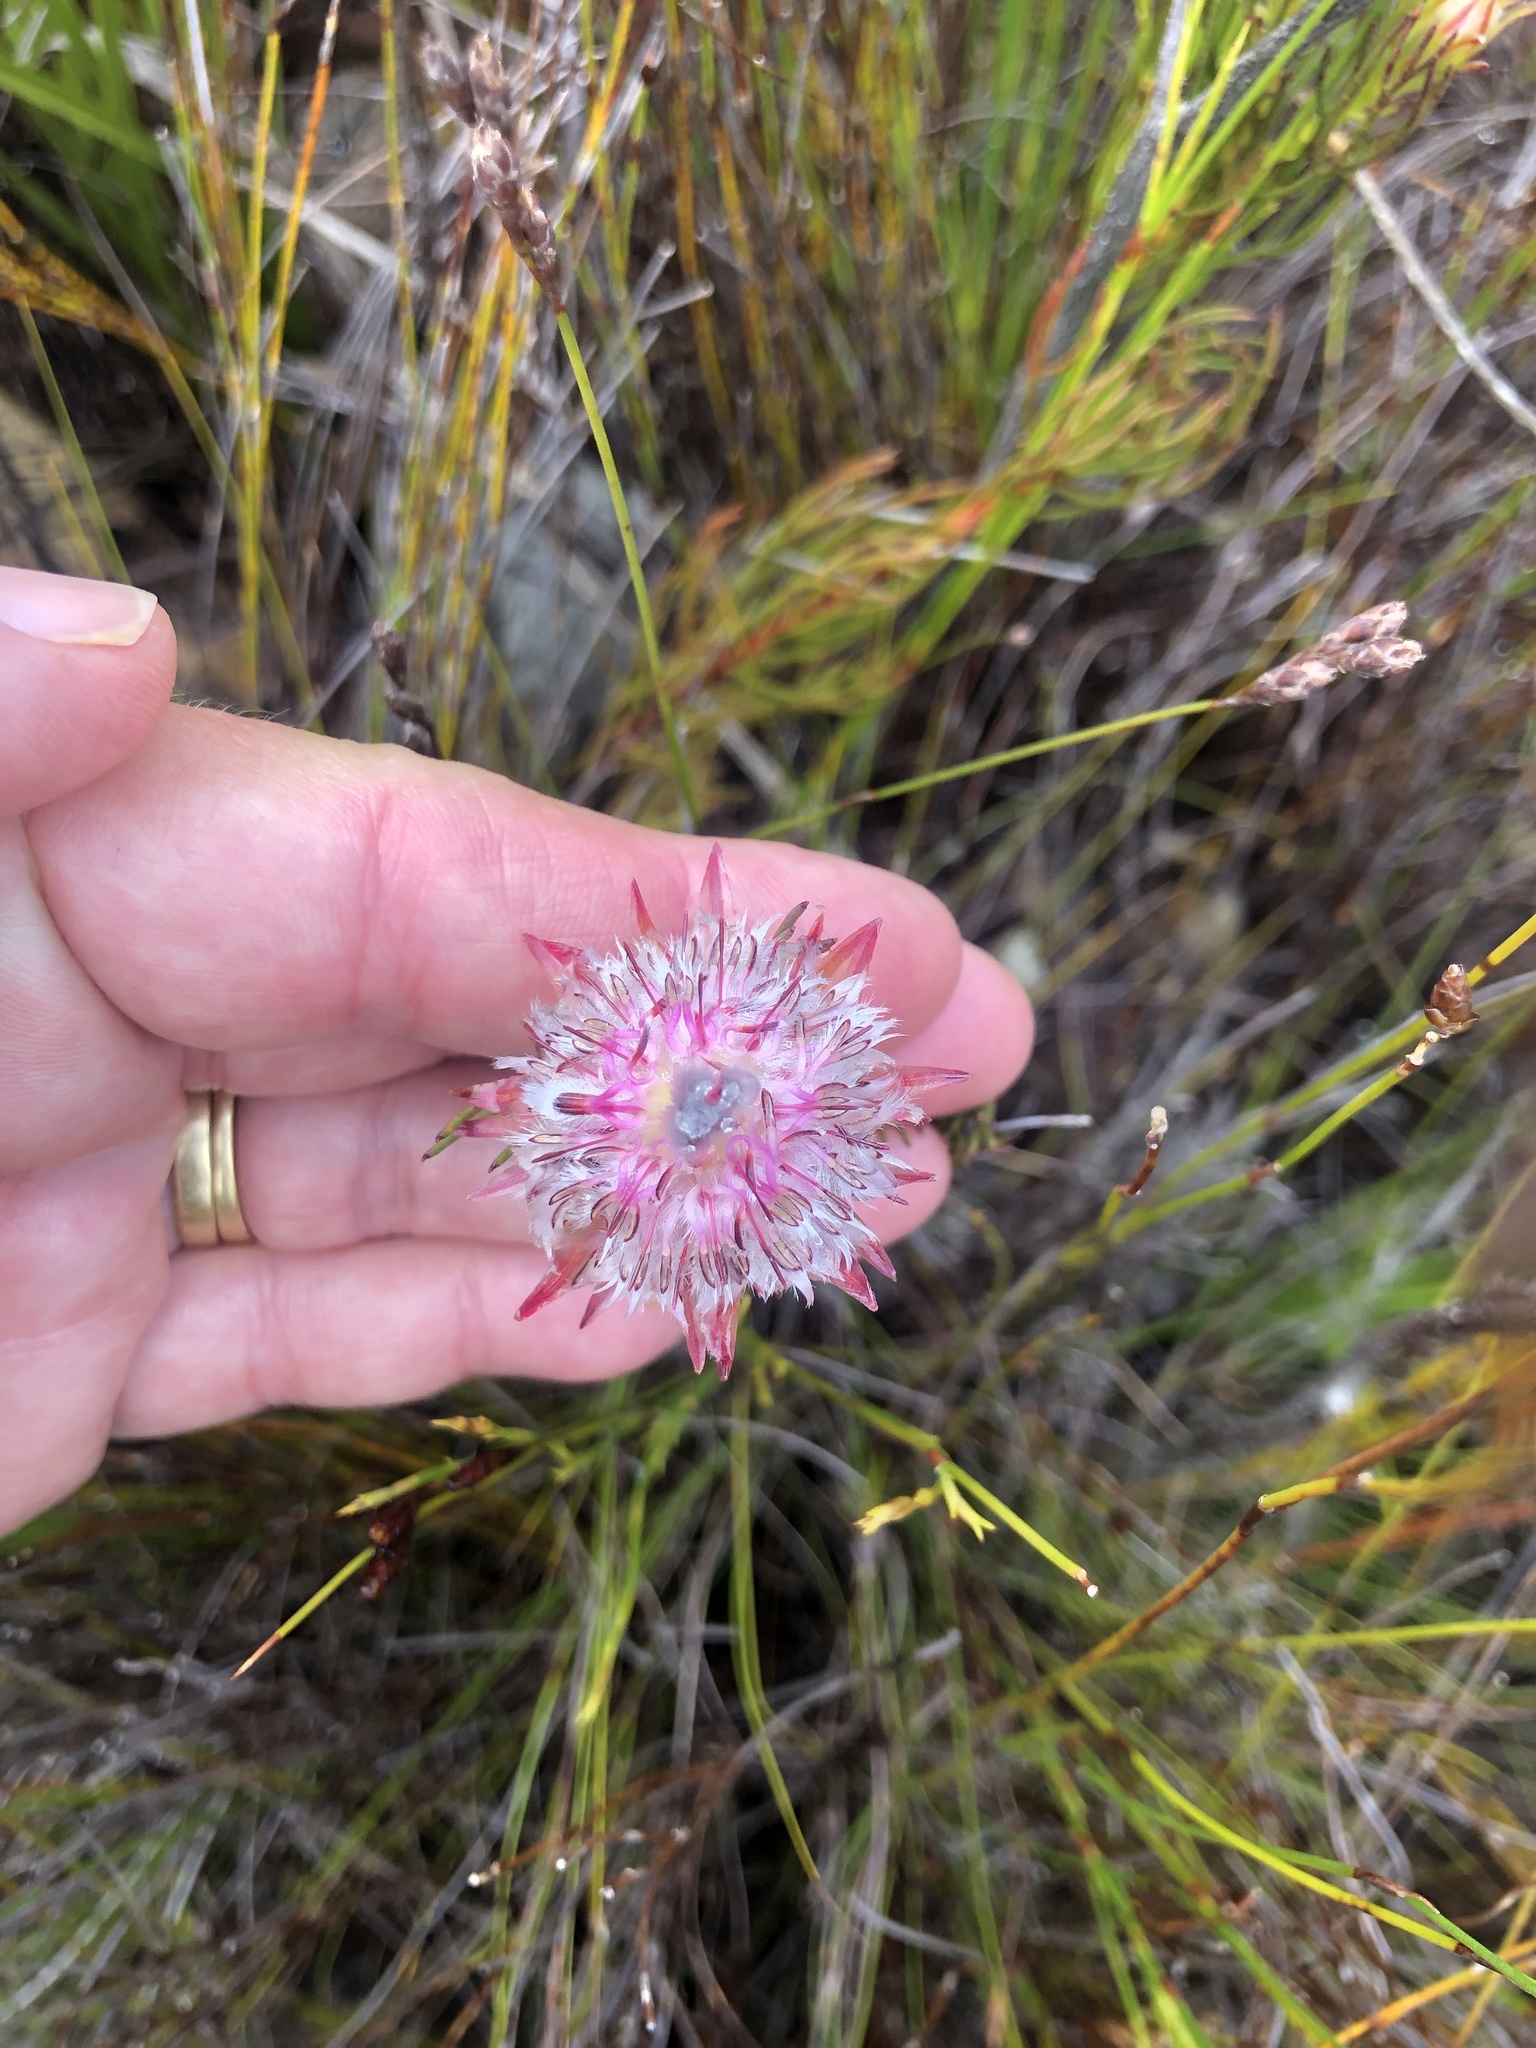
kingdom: Plantae
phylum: Tracheophyta
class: Magnoliopsida
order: Proteales
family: Proteaceae
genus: Serruria
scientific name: Serruria phylicoides
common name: Bearded spiderhead
